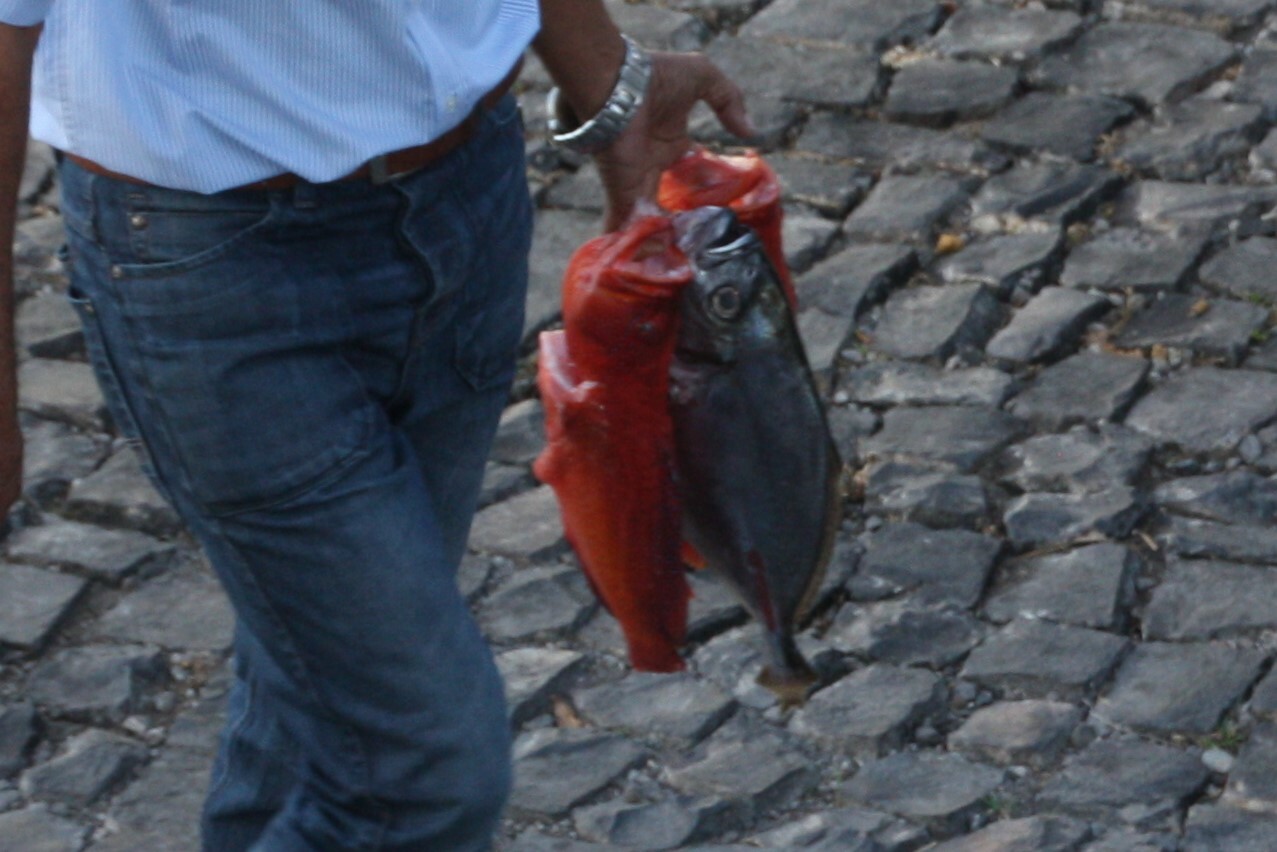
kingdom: Animalia
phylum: Chordata
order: Perciformes
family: Serranidae
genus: Cephalopholis
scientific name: Cephalopholis taeniops
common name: African hind
